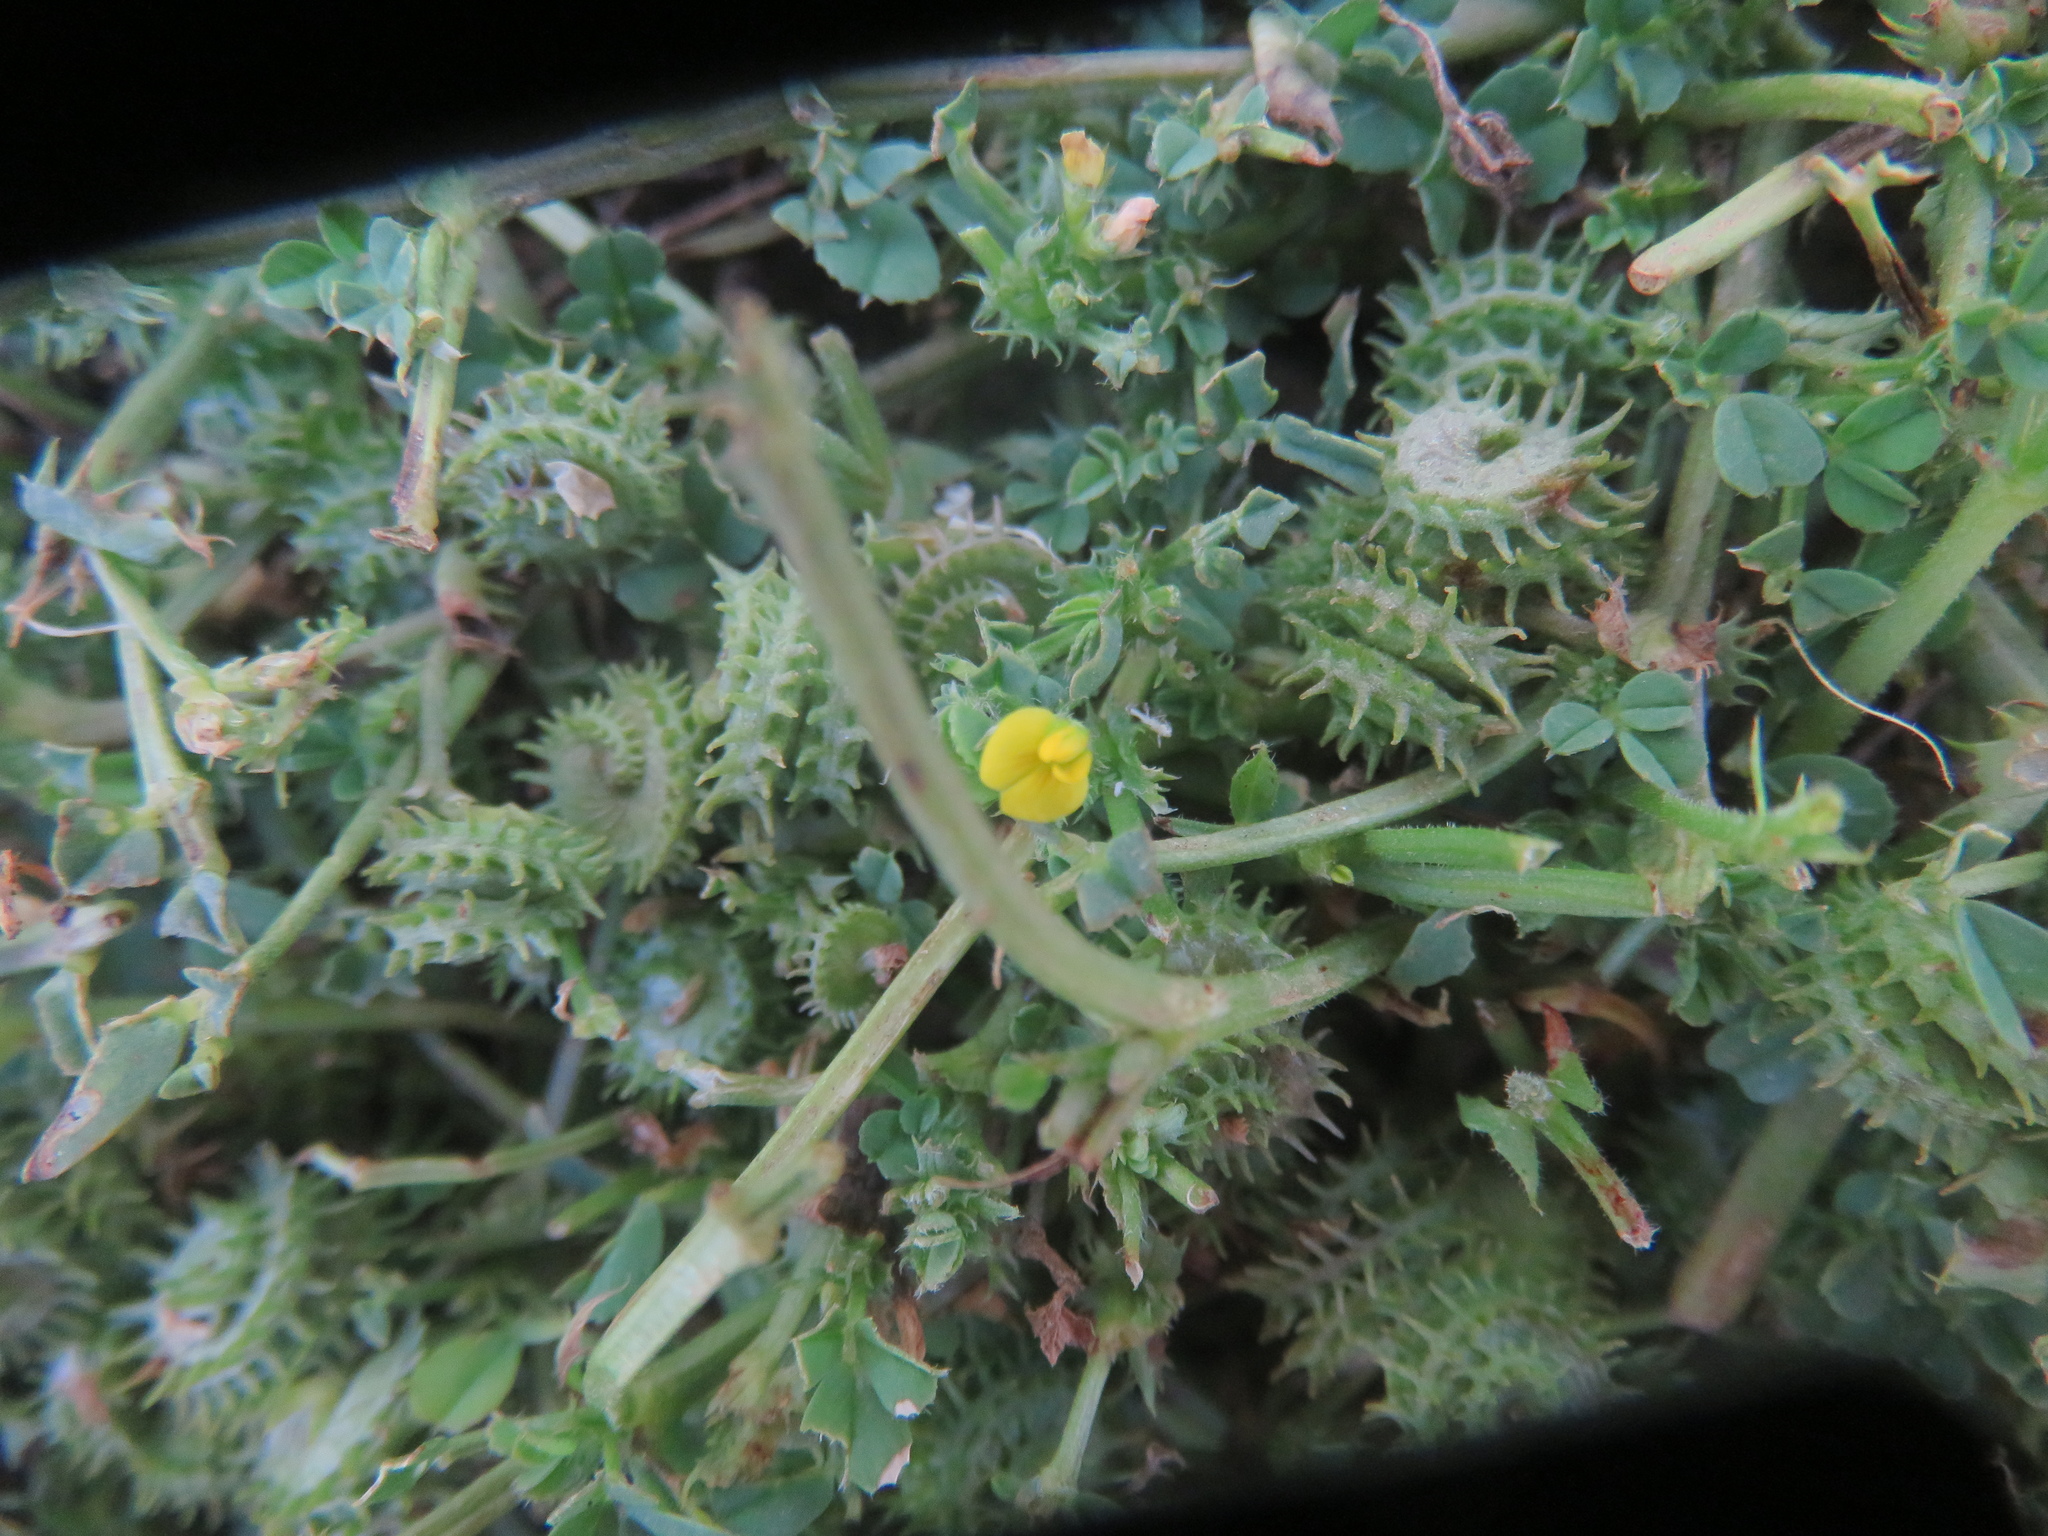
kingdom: Plantae
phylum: Tracheophyta
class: Magnoliopsida
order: Fabales
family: Fabaceae
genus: Medicago
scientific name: Medicago polymorpha
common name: Burclover
